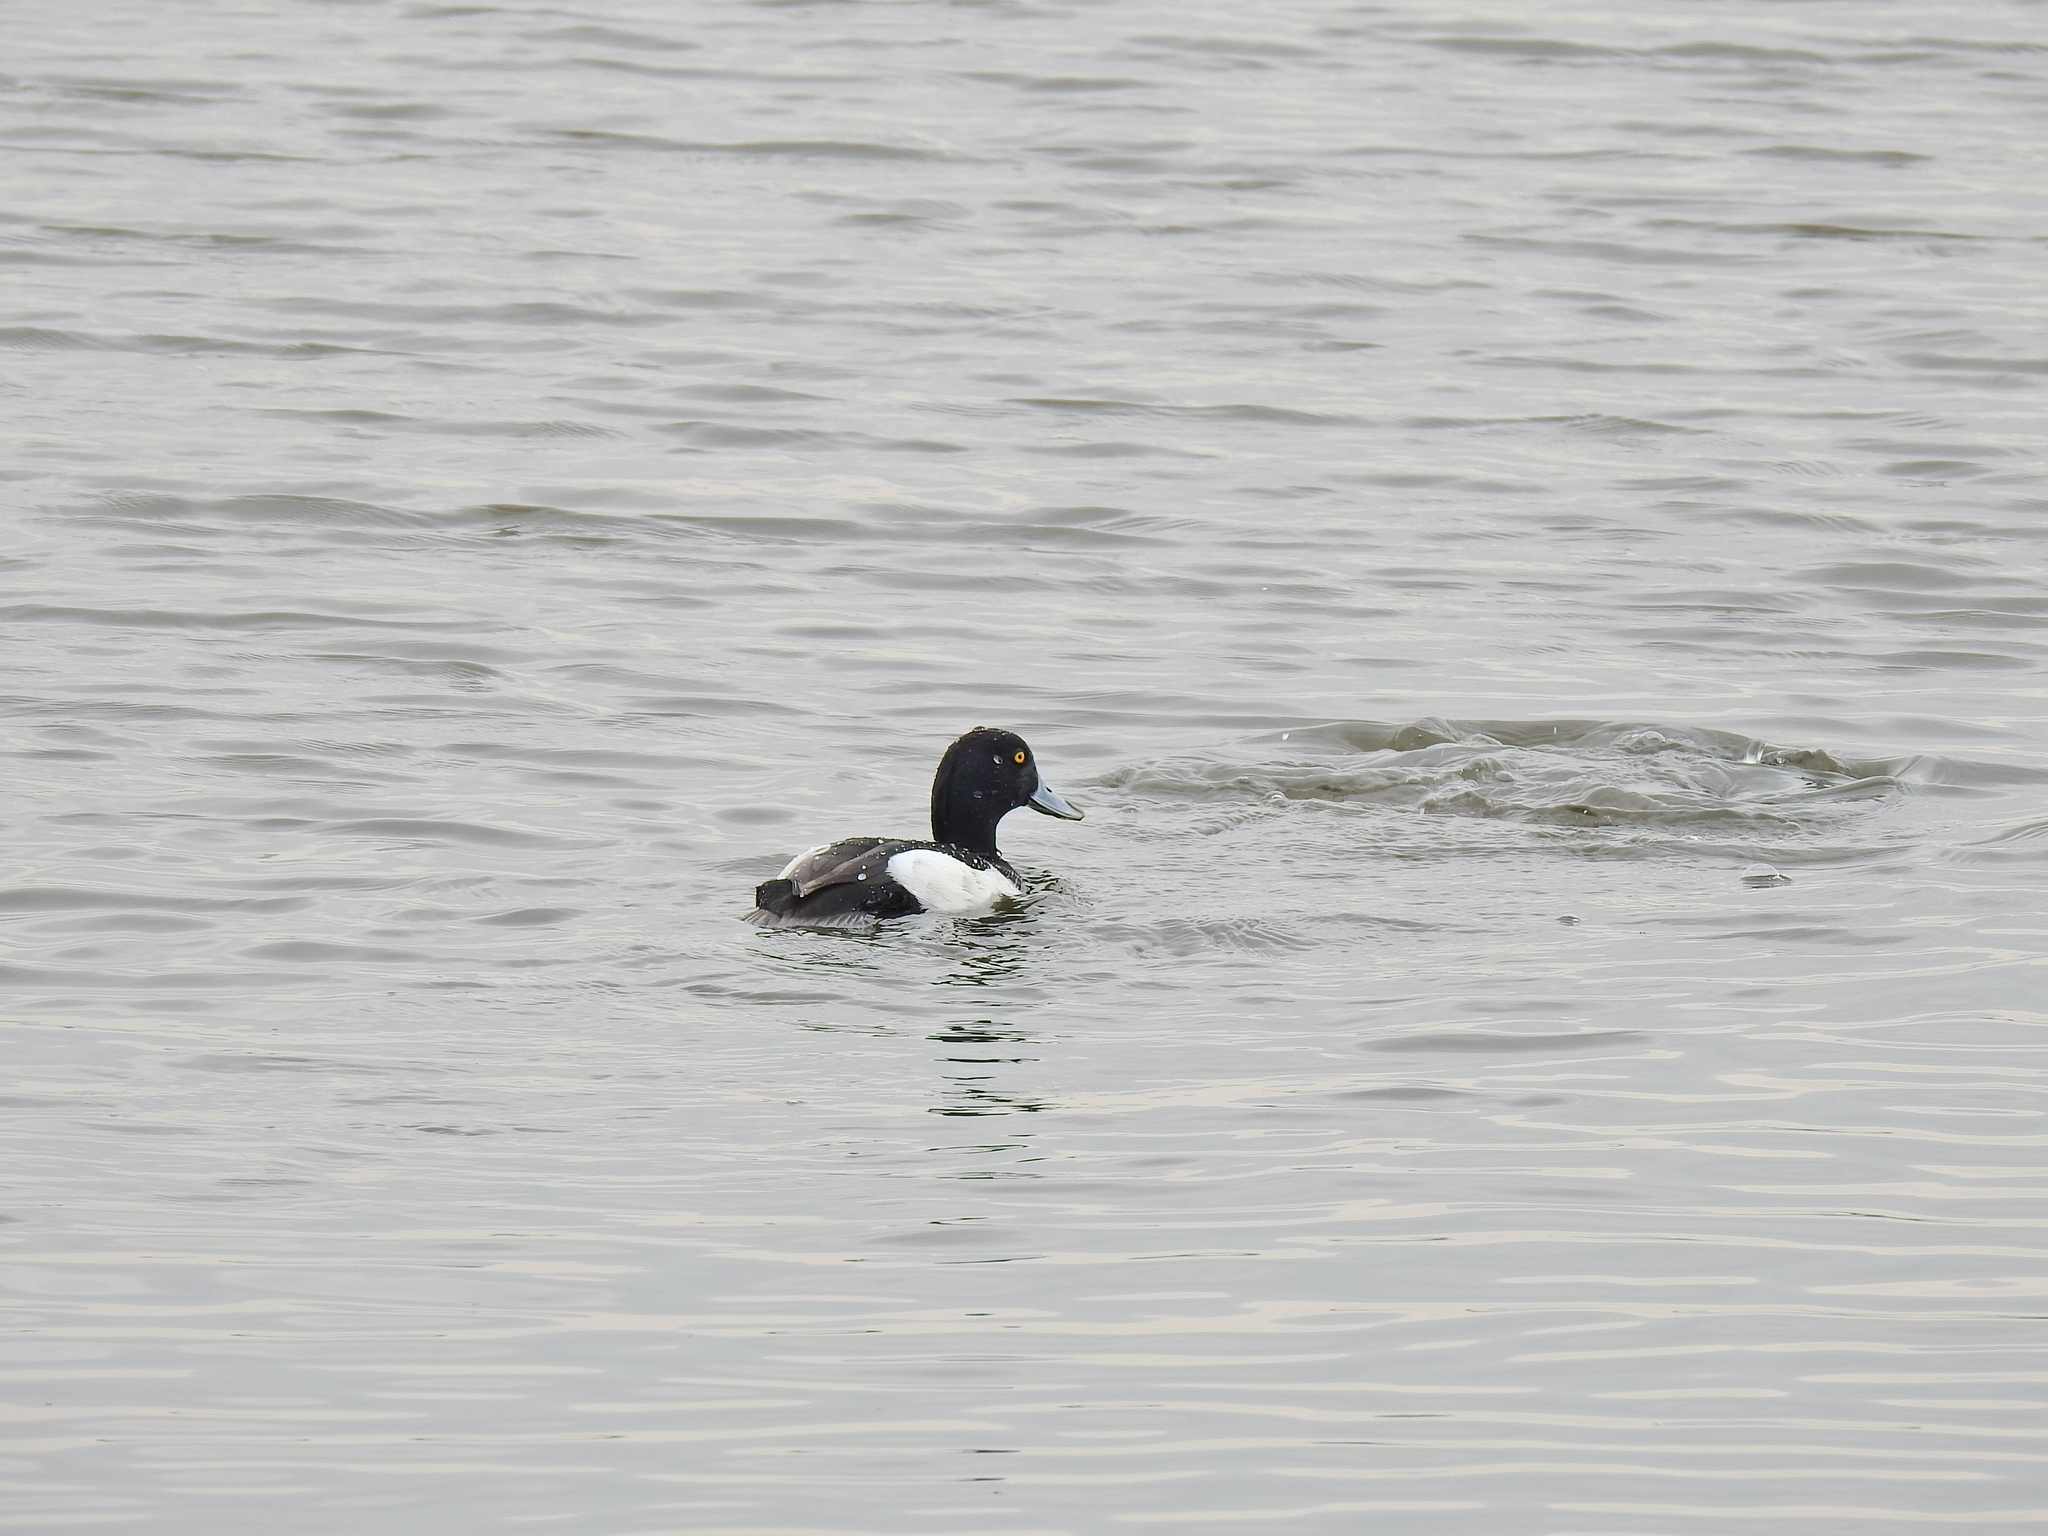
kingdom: Animalia
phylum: Chordata
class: Aves
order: Anseriformes
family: Anatidae
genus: Aythya
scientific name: Aythya fuligula
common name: Tufted duck
